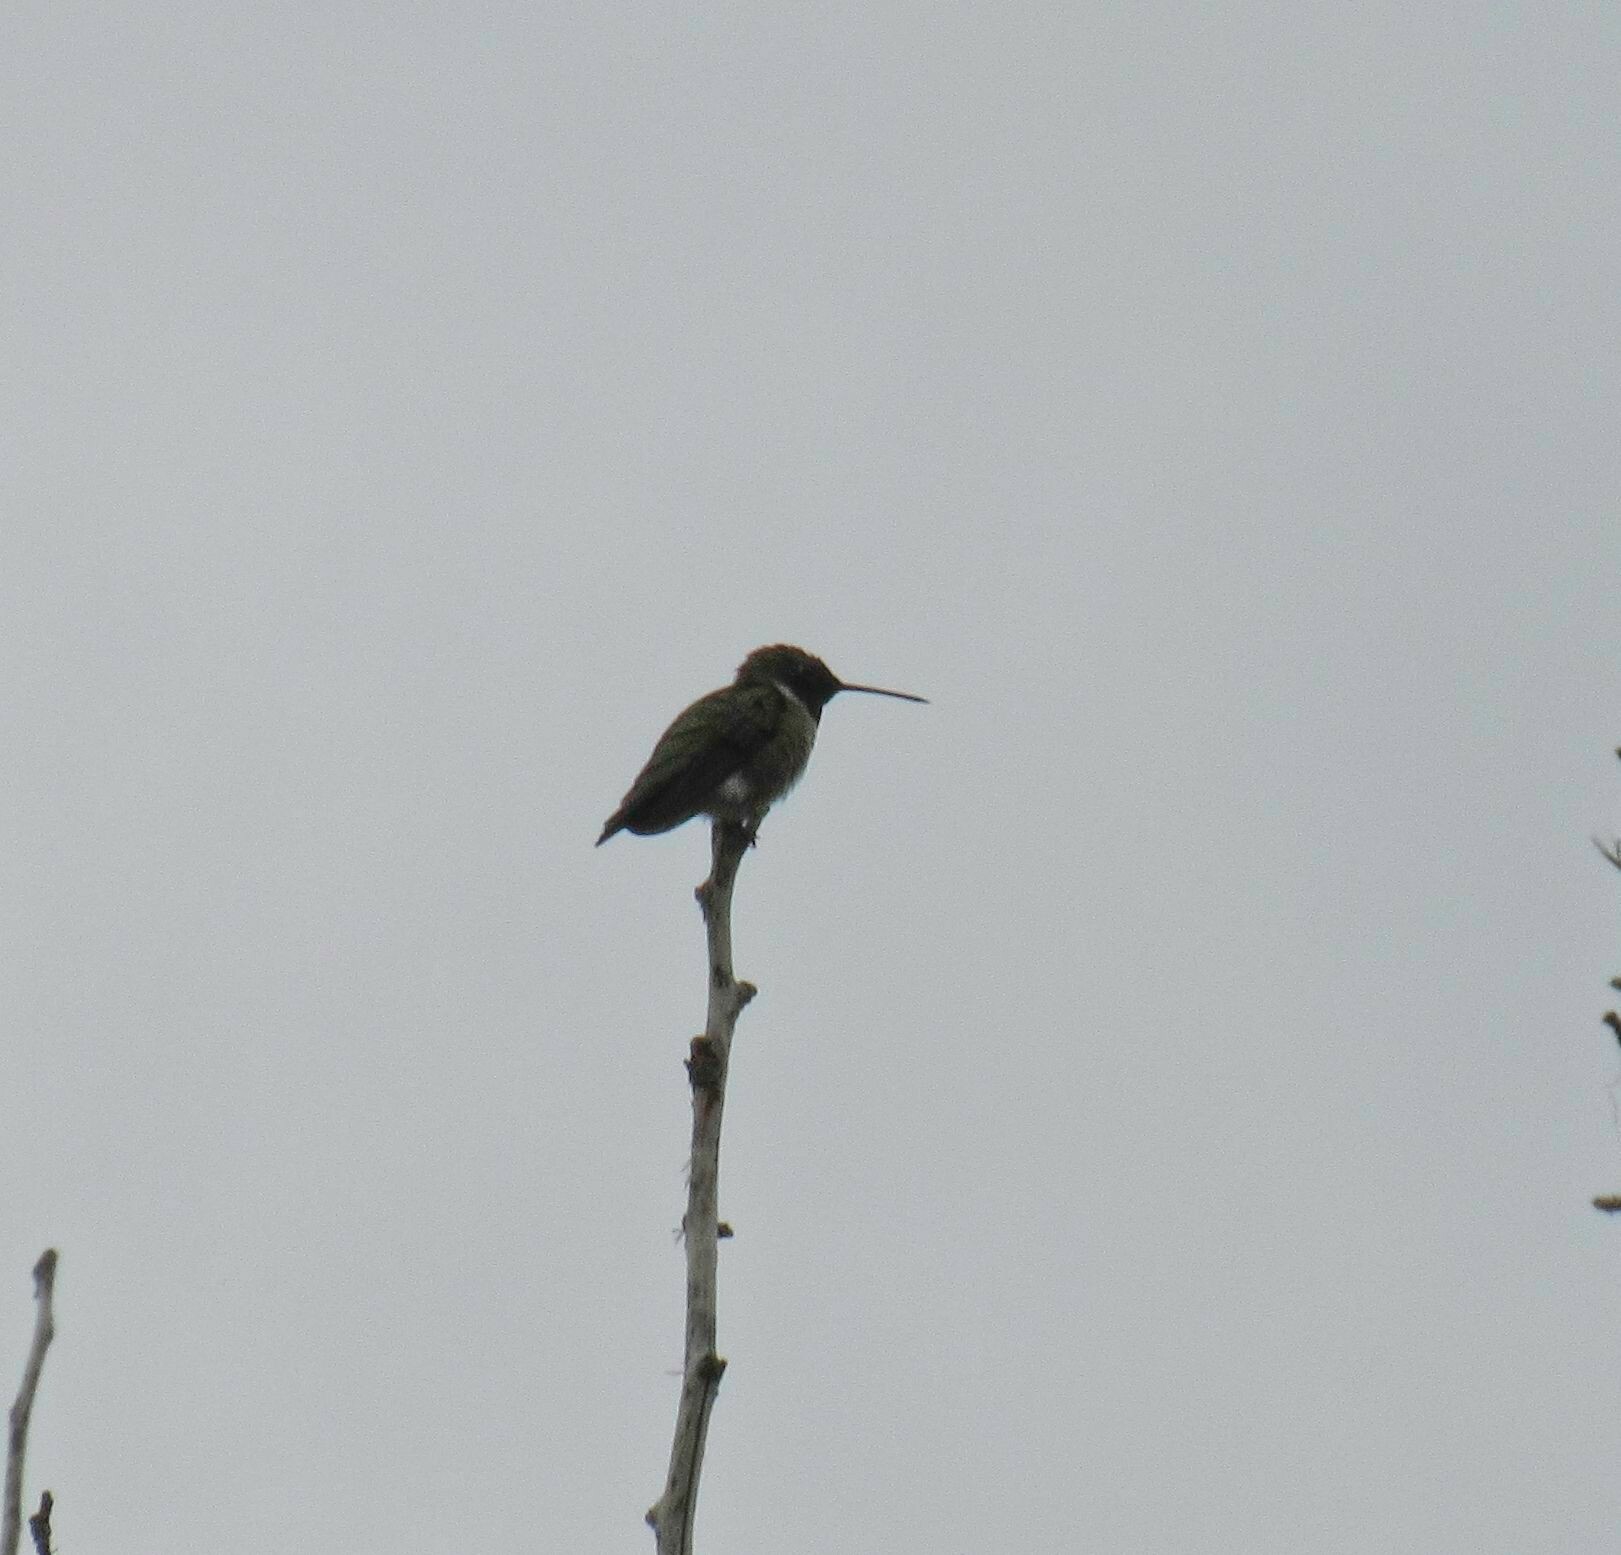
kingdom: Animalia
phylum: Chordata
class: Aves
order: Apodiformes
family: Trochilidae
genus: Archilochus
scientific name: Archilochus alexandri
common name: Black-chinned hummingbird
